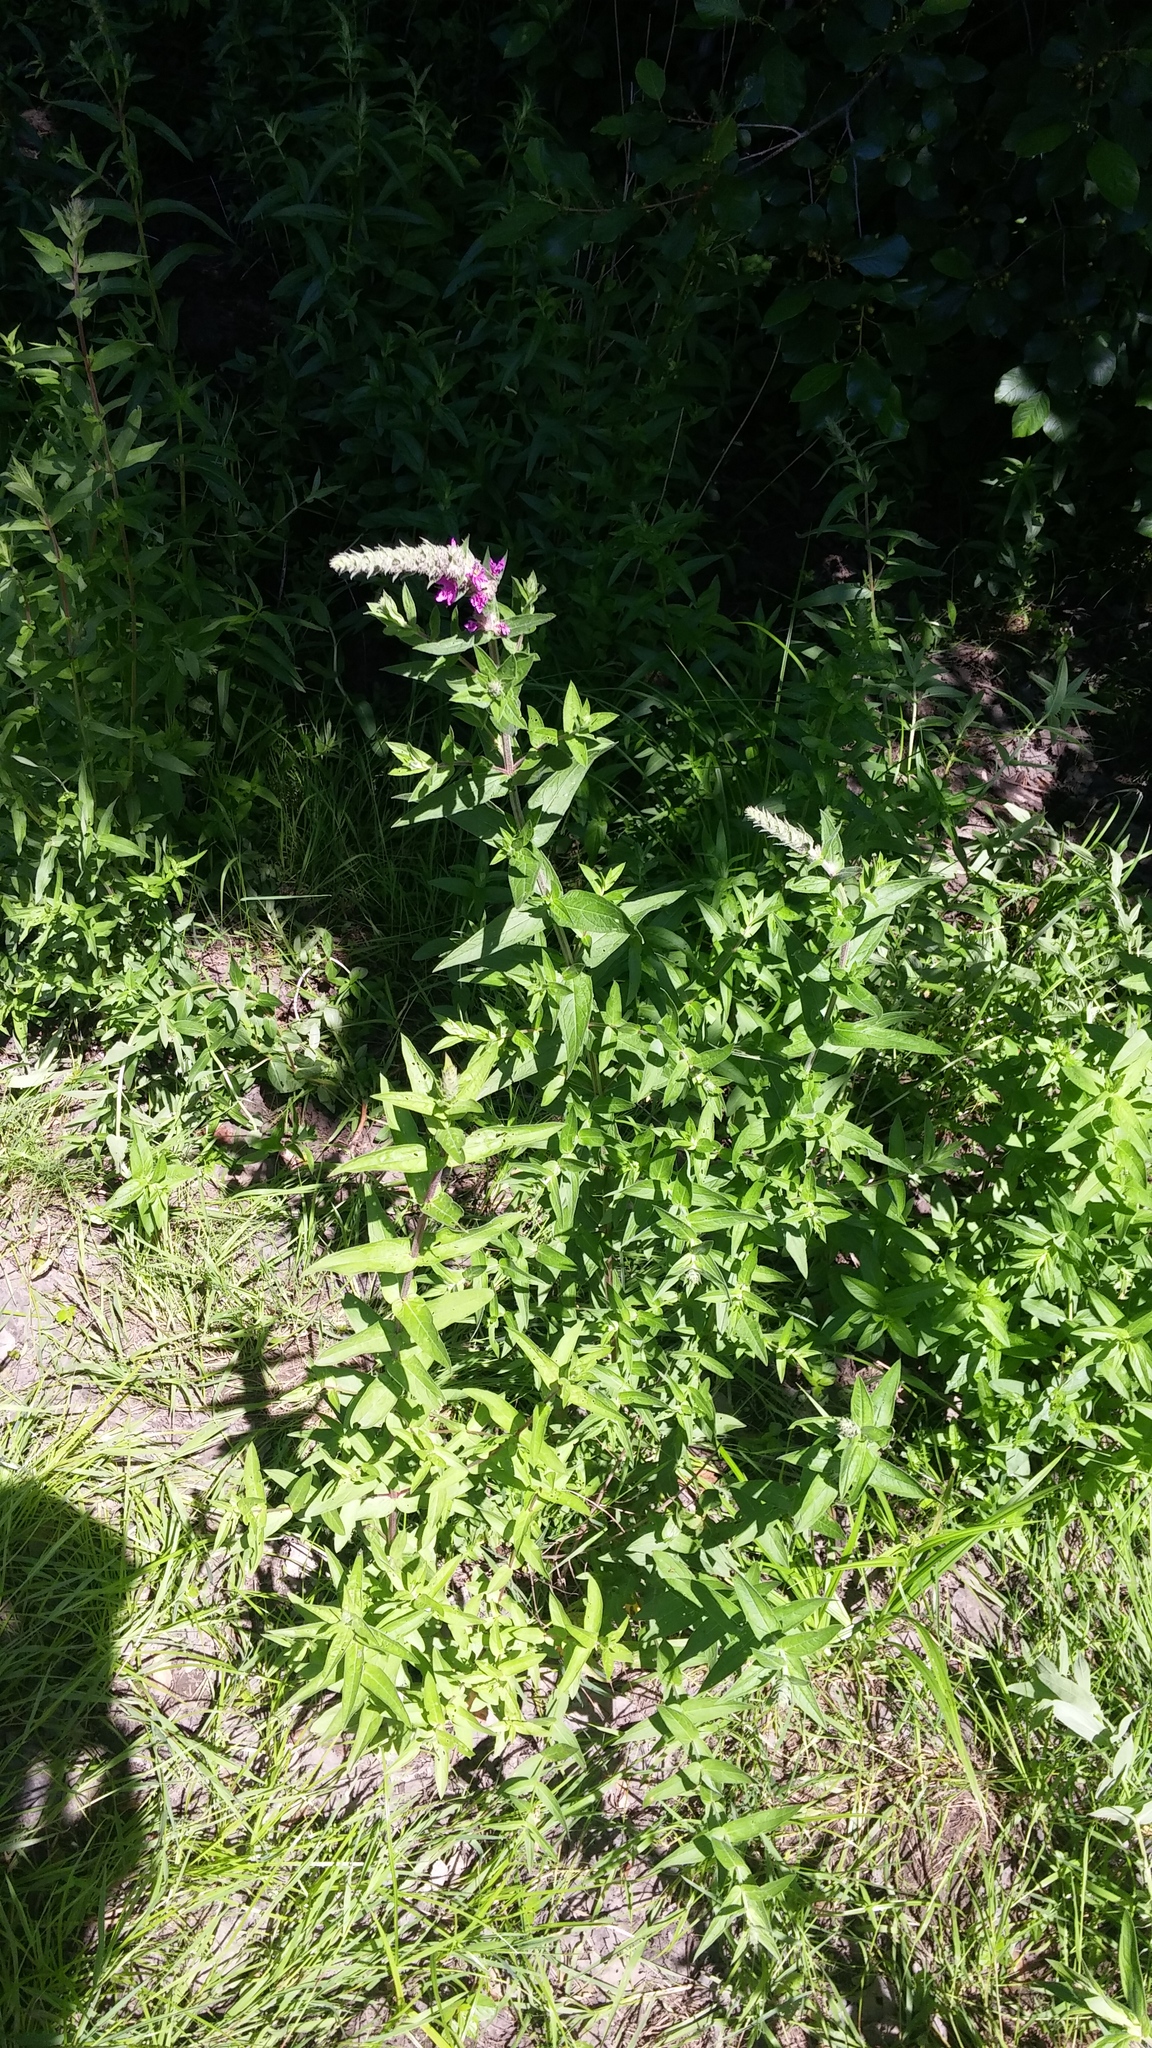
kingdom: Plantae
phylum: Tracheophyta
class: Magnoliopsida
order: Myrtales
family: Lythraceae
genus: Lythrum
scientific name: Lythrum salicaria
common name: Purple loosestrife
